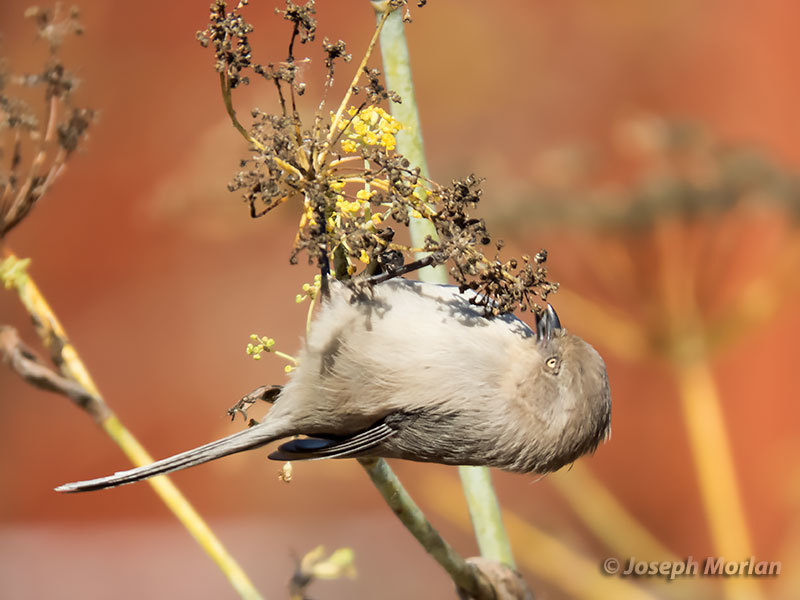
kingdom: Animalia
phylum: Chordata
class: Aves
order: Passeriformes
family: Aegithalidae
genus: Psaltriparus
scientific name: Psaltriparus minimus
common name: American bushtit
